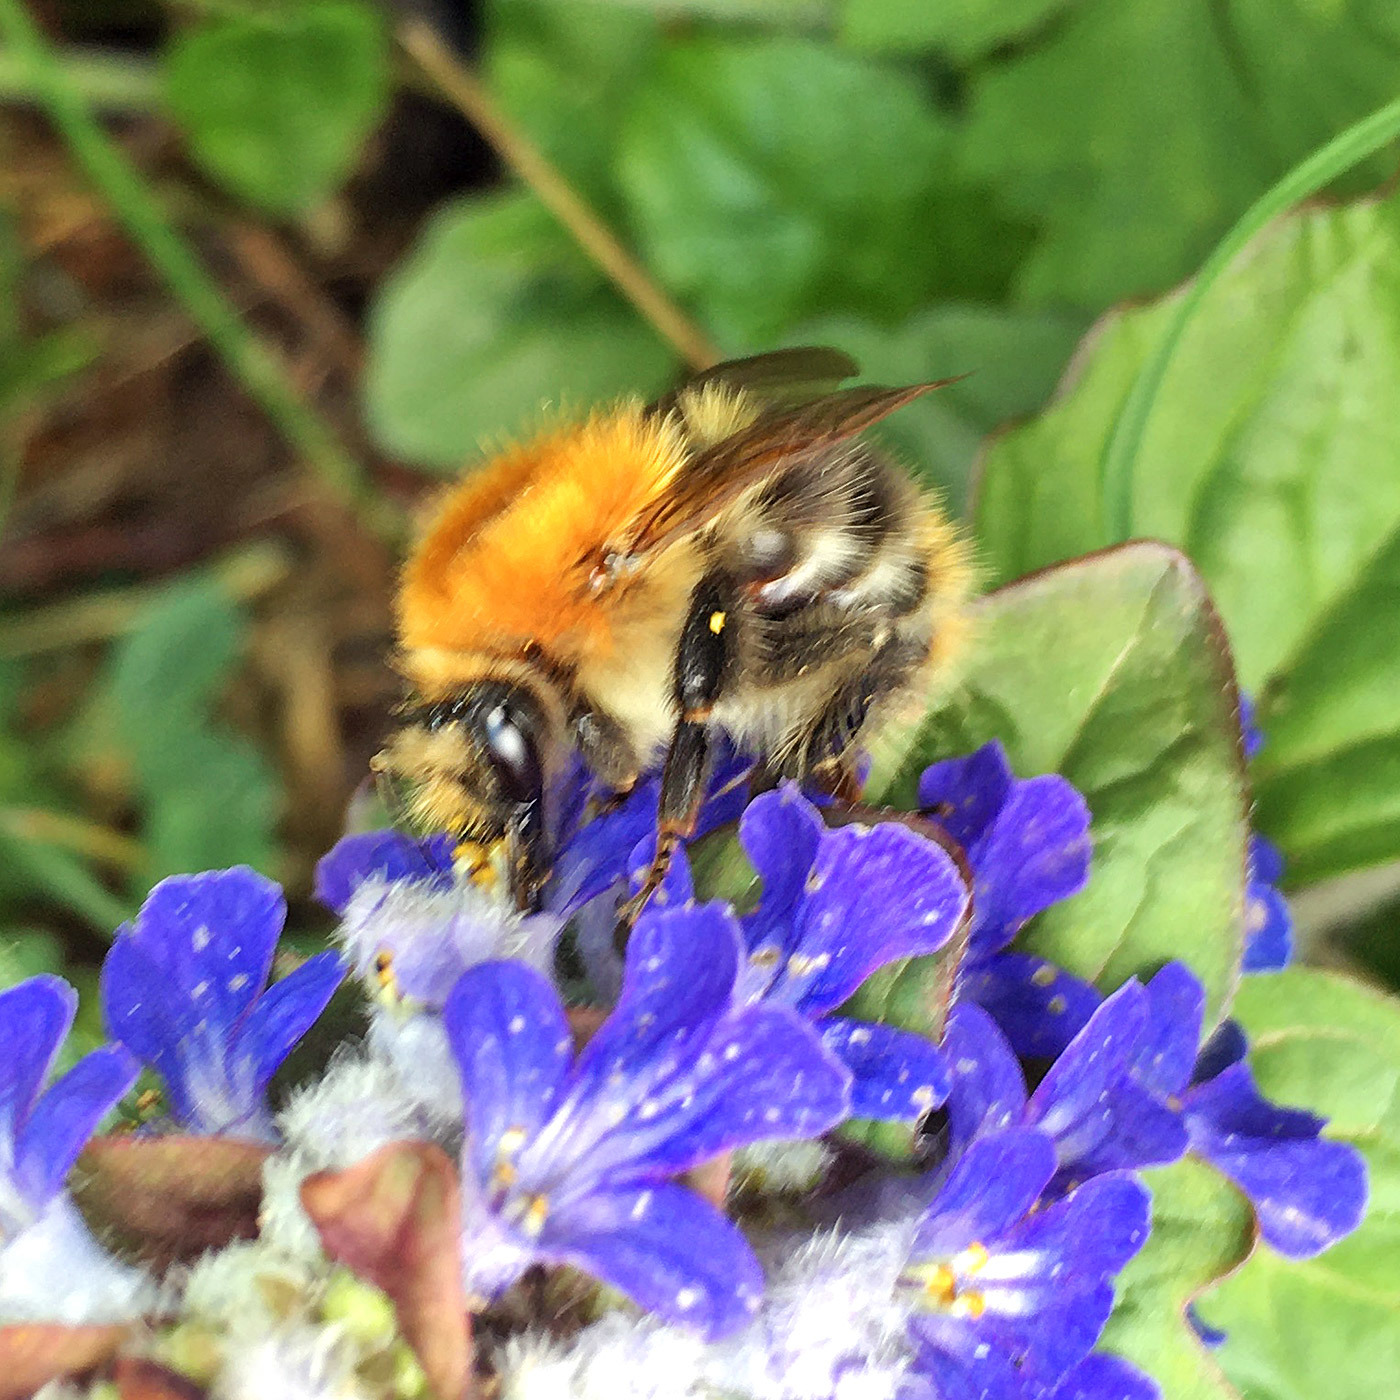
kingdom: Animalia
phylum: Arthropoda
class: Insecta
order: Hymenoptera
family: Apidae
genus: Bombus
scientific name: Bombus pascuorum
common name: Common carder bee
